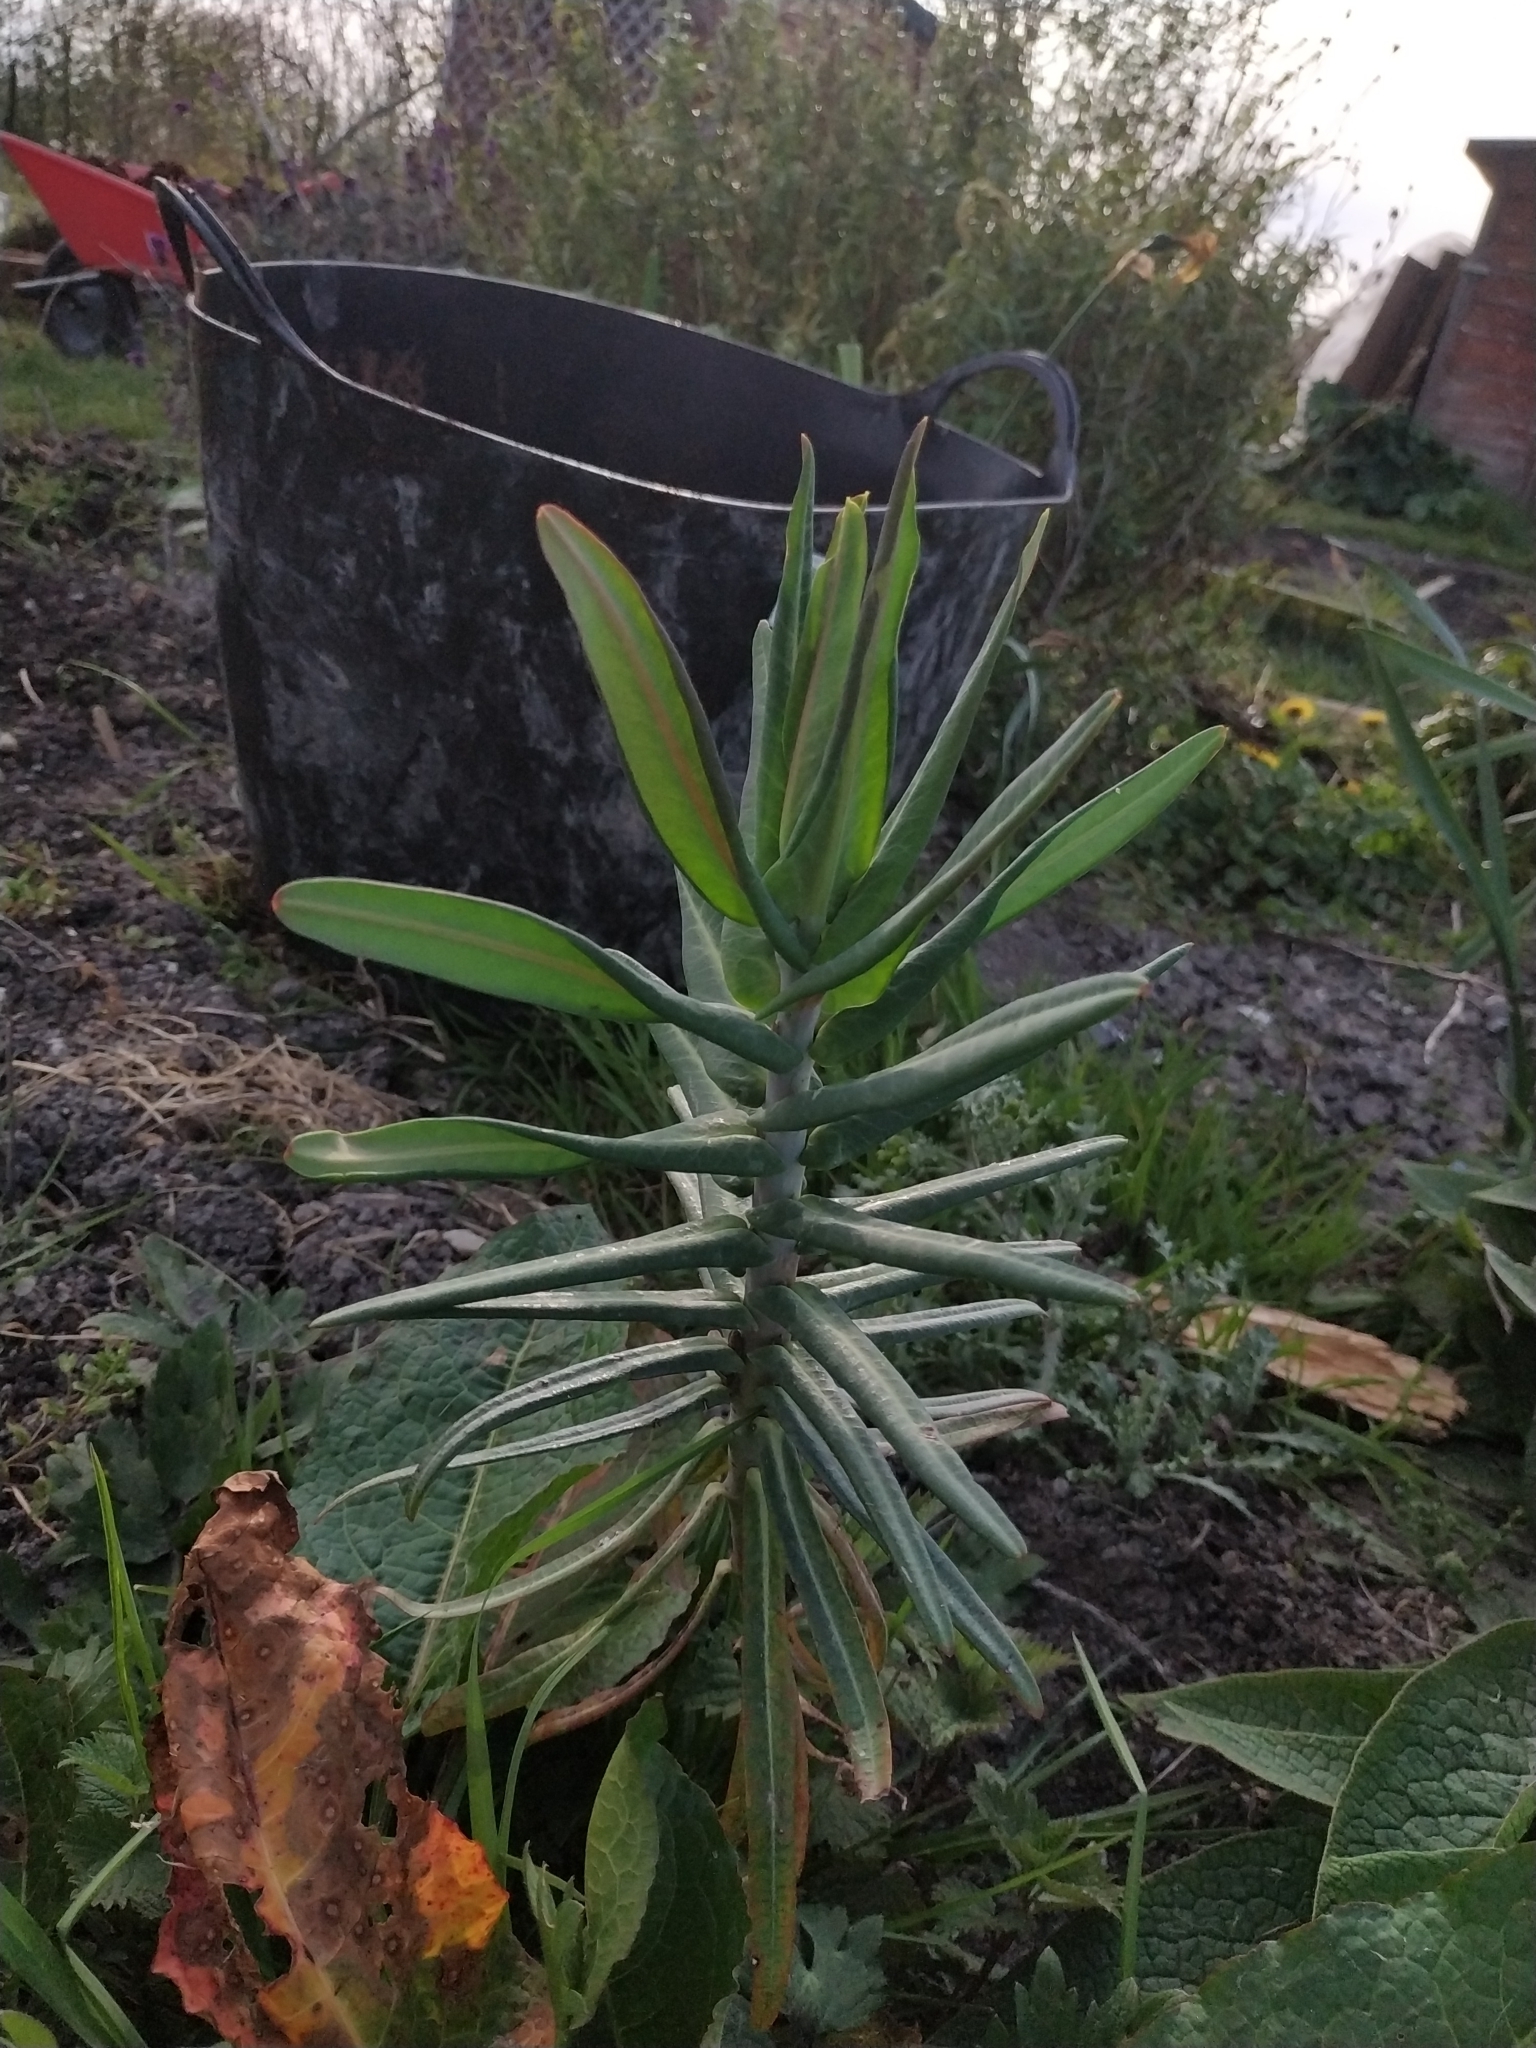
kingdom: Plantae
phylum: Tracheophyta
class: Magnoliopsida
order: Malpighiales
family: Euphorbiaceae
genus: Euphorbia
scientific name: Euphorbia lathyris
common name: Caper spurge
